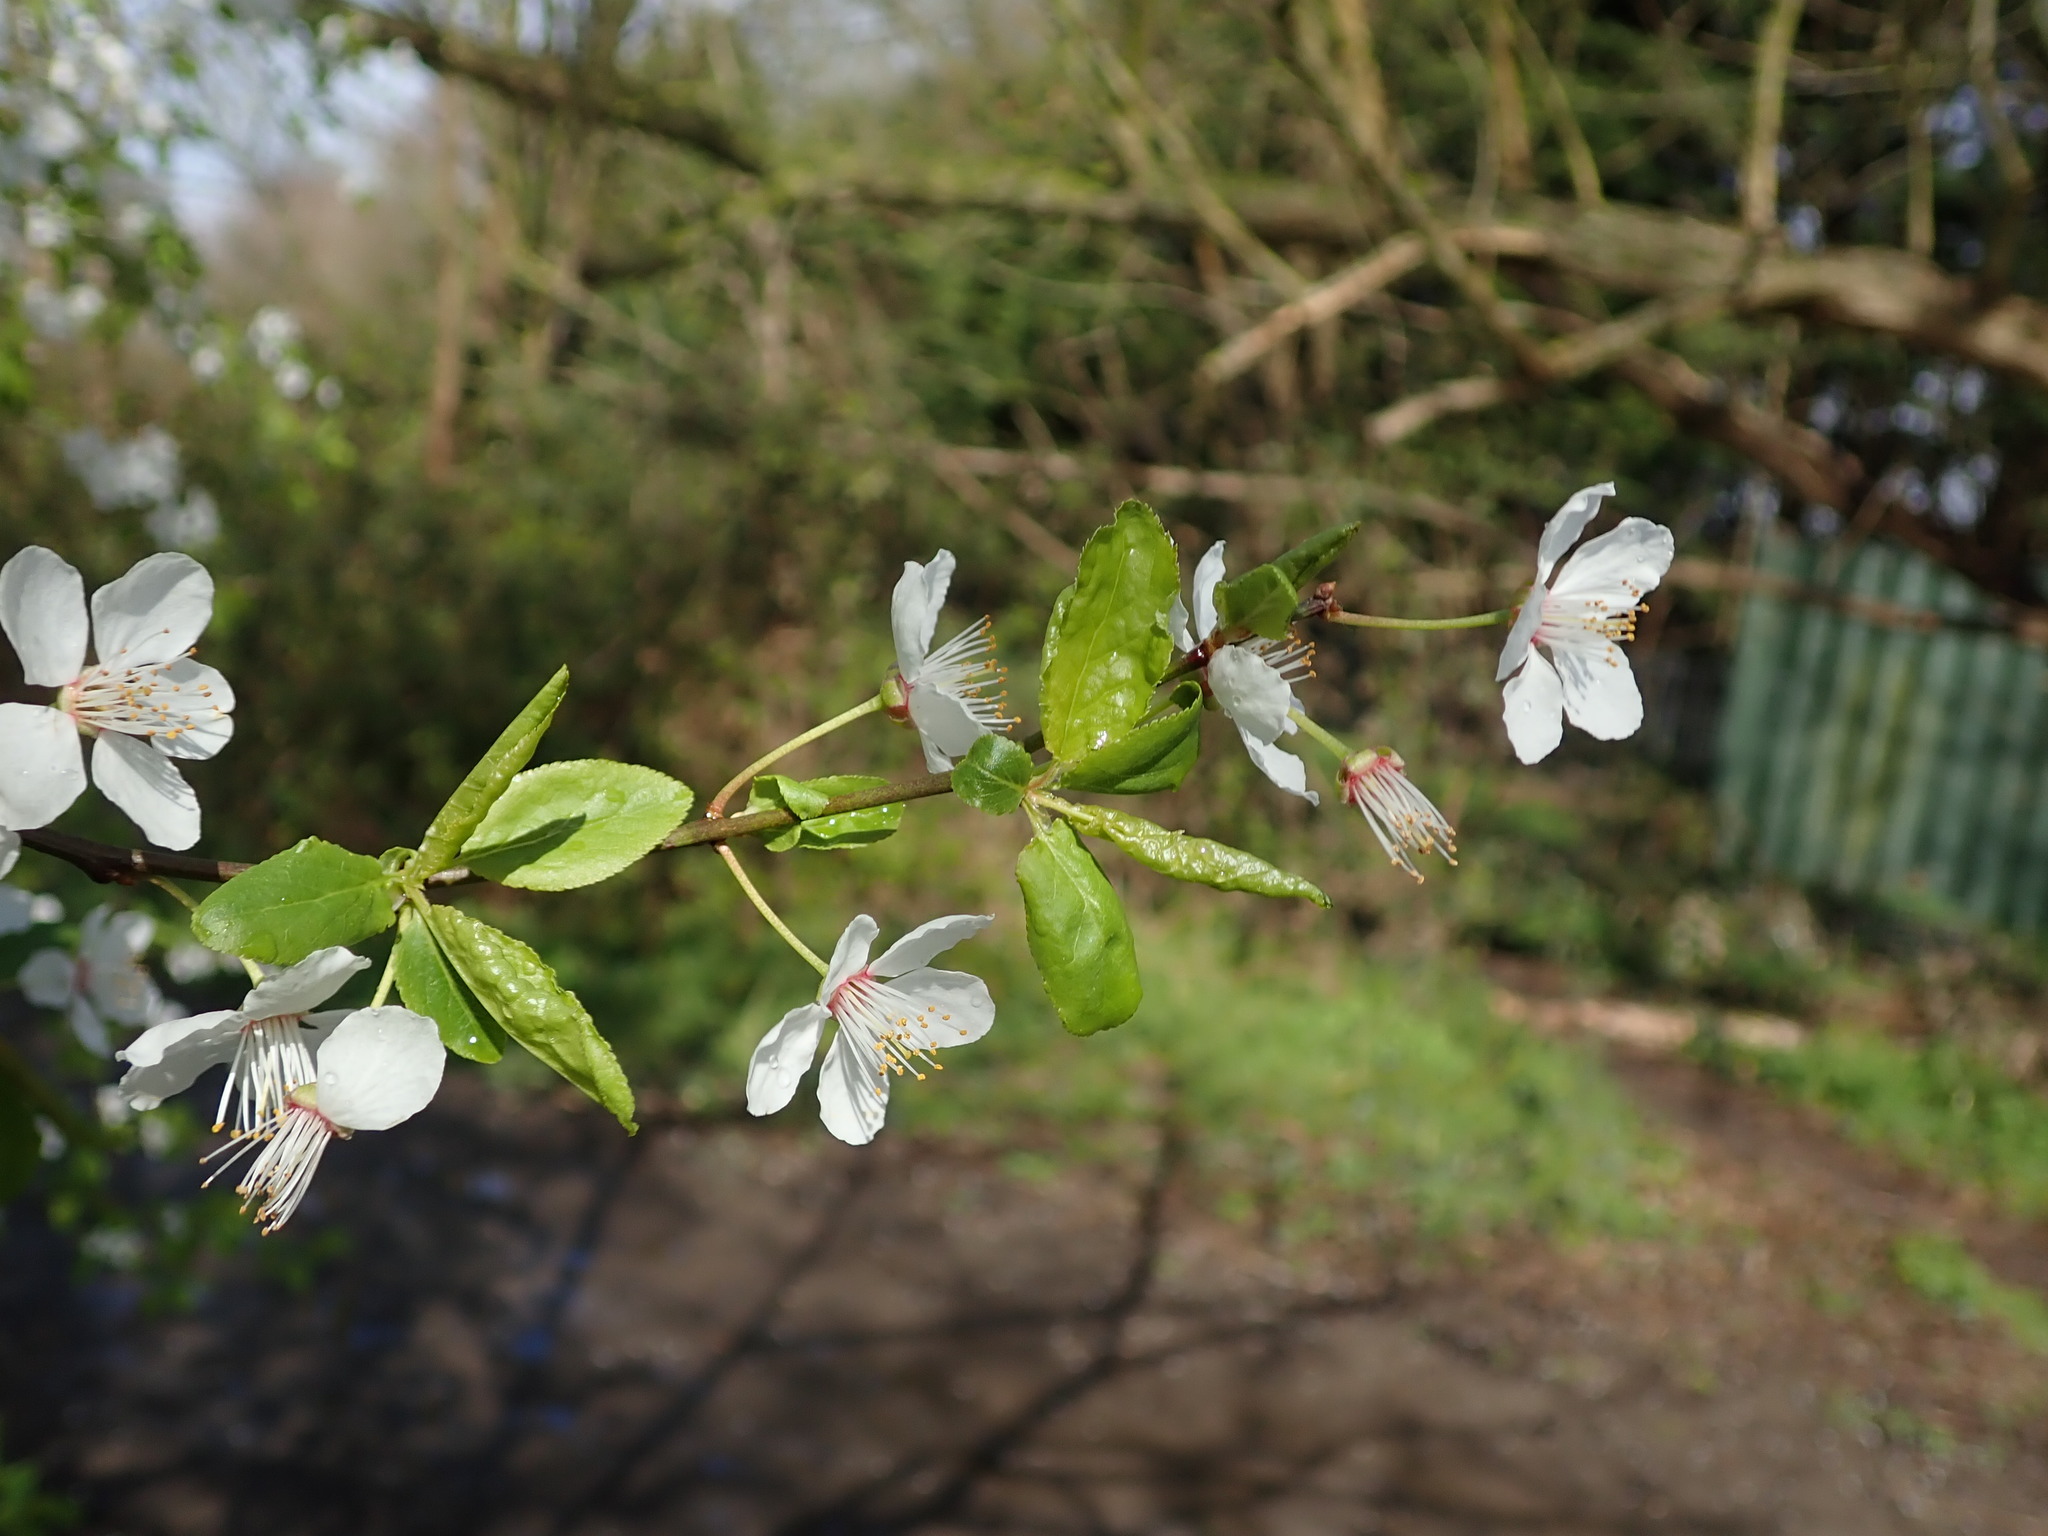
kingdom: Plantae
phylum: Tracheophyta
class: Magnoliopsida
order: Rosales
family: Rosaceae
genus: Prunus
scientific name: Prunus cerasifera
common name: Cherry plum
